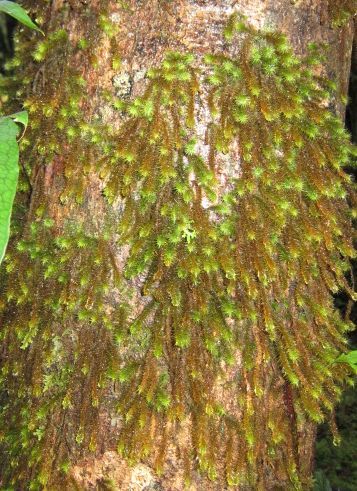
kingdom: Plantae
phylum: Bryophyta
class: Bryopsida
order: Hypnodendrales
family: Spiridentaceae
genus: Cyrtopus
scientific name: Cyrtopus setosus
